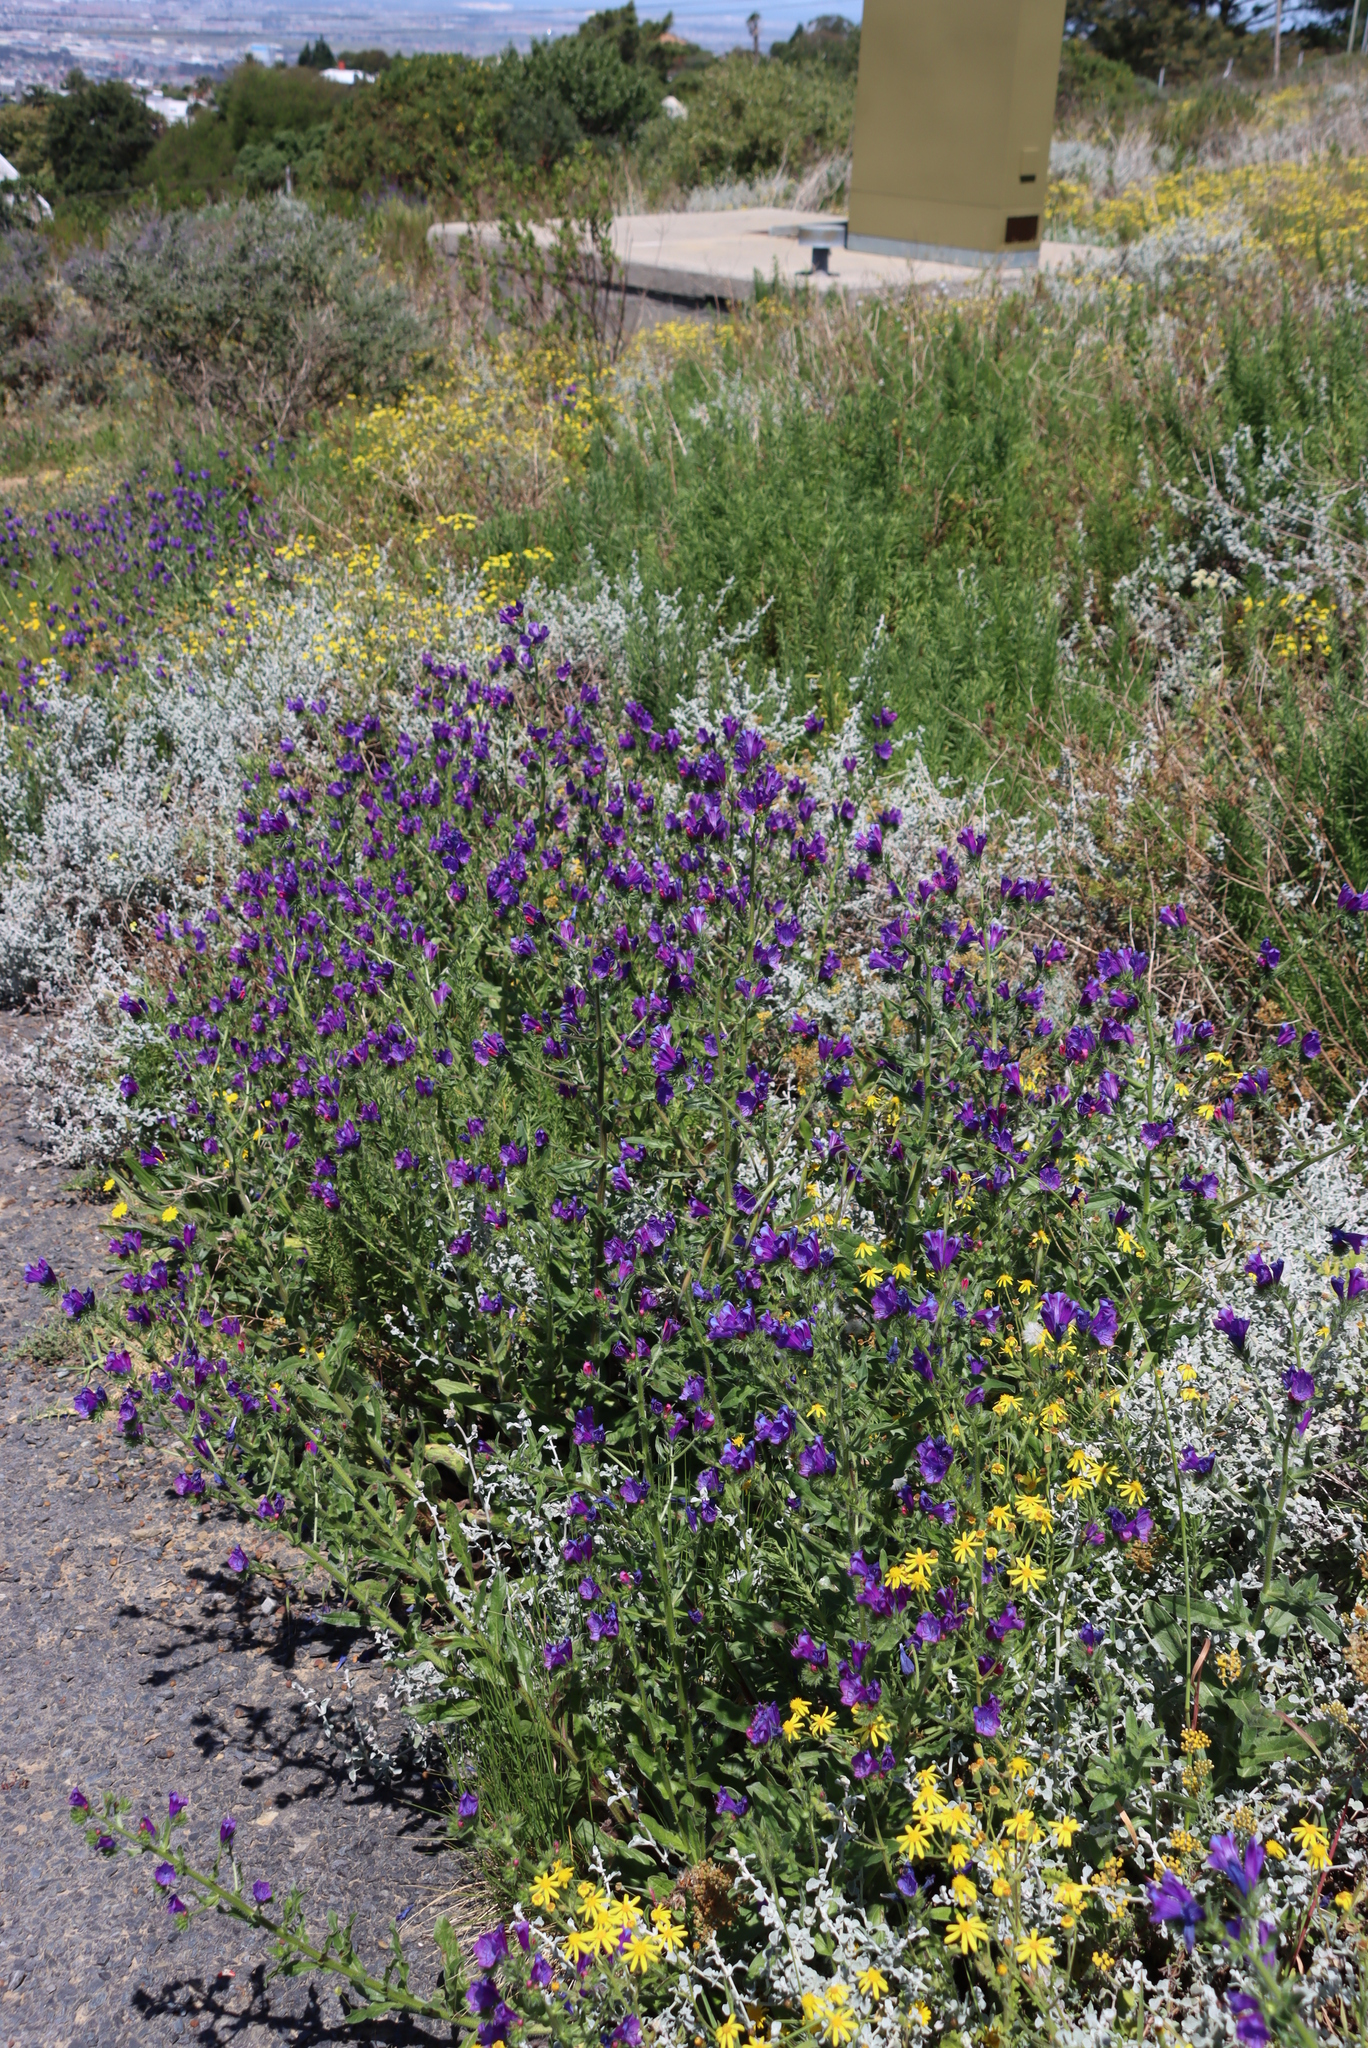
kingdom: Plantae
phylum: Tracheophyta
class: Magnoliopsida
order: Boraginales
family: Boraginaceae
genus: Echium
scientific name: Echium plantagineum
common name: Purple viper's-bugloss
